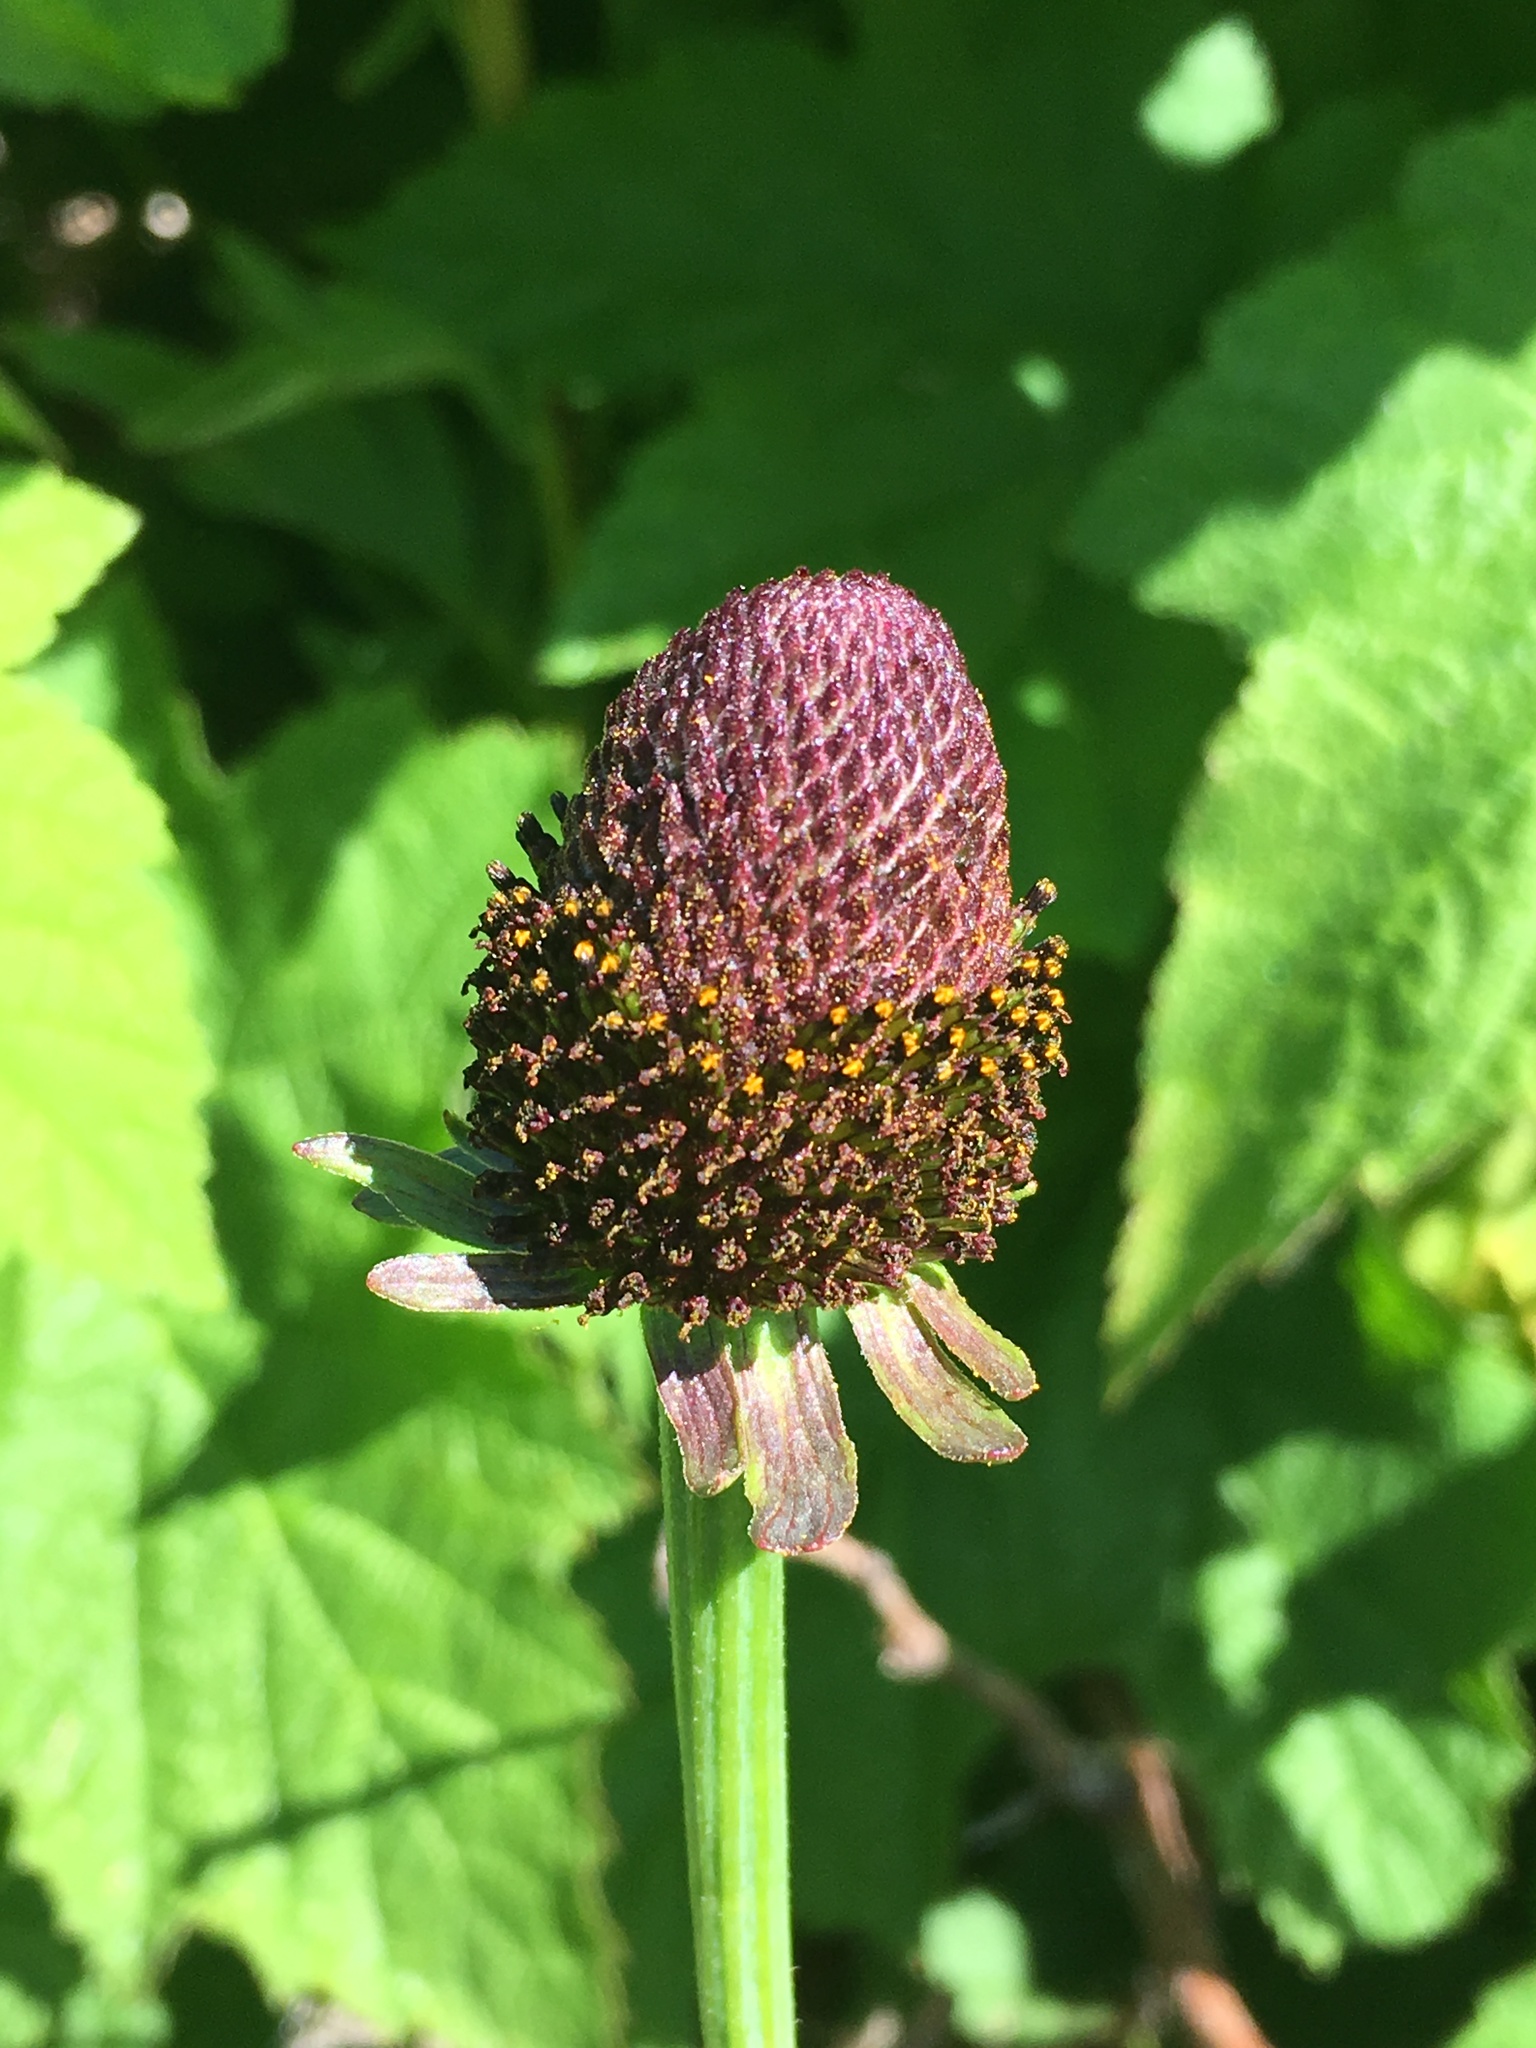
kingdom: Plantae
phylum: Tracheophyta
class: Magnoliopsida
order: Asterales
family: Asteraceae
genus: Rudbeckia
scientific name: Rudbeckia occidentalis
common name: Western coneflower
